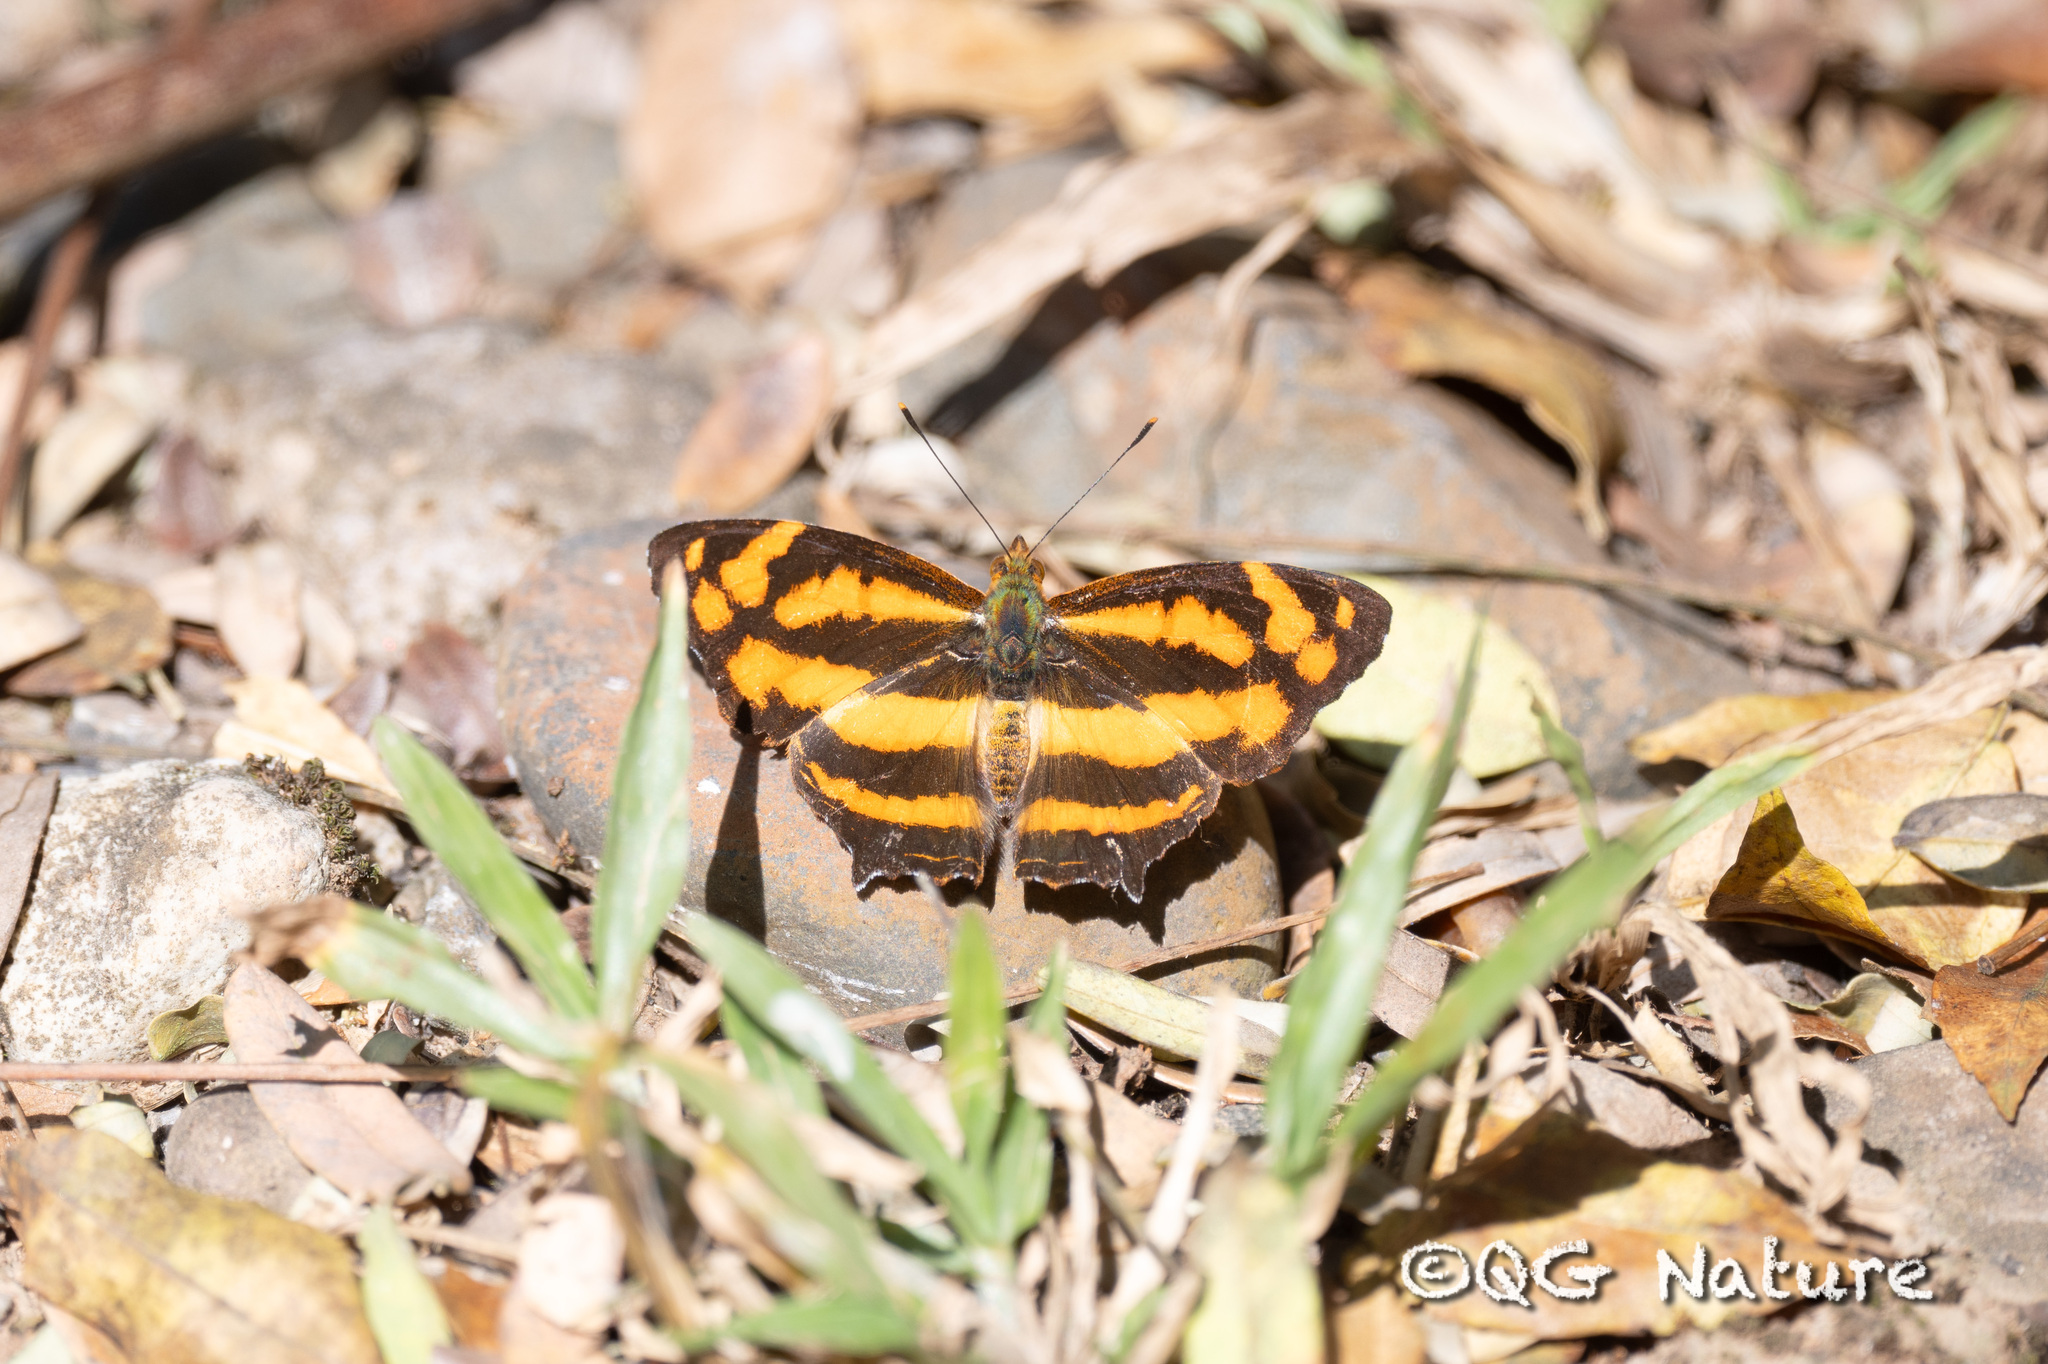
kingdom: Animalia
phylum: Arthropoda
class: Insecta
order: Lepidoptera
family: Nymphalidae
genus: Symbrenthia
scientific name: Symbrenthia hypselis
